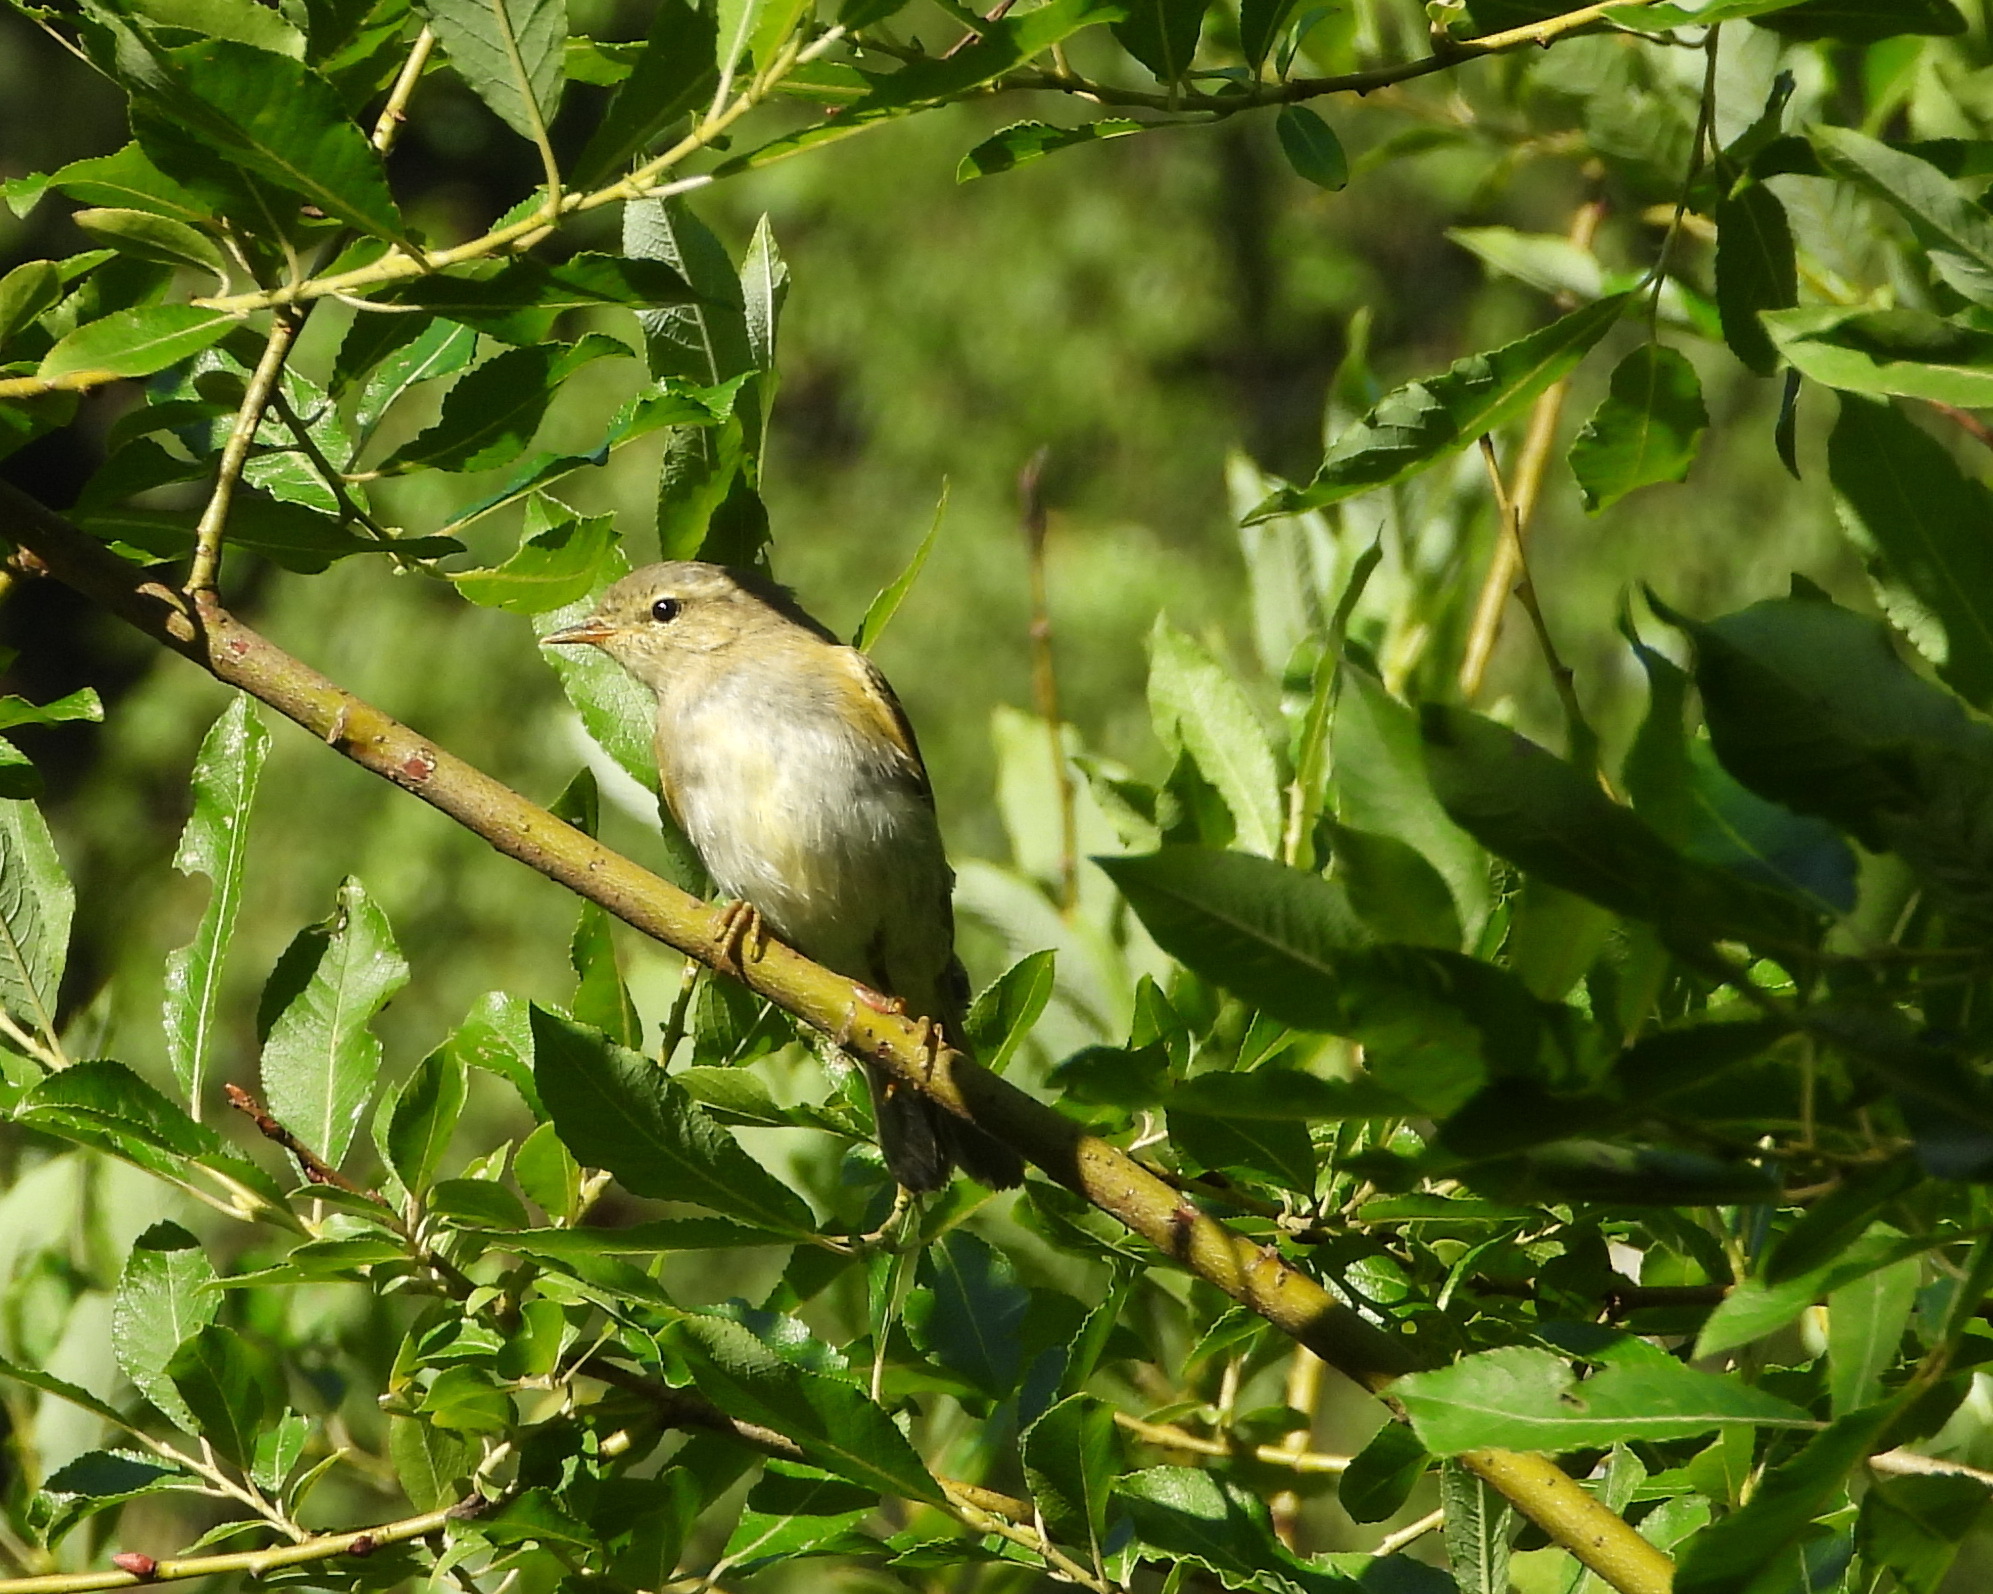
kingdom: Animalia
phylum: Chordata
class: Aves
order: Passeriformes
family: Phylloscopidae
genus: Phylloscopus
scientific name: Phylloscopus trochilus
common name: Willow warbler
